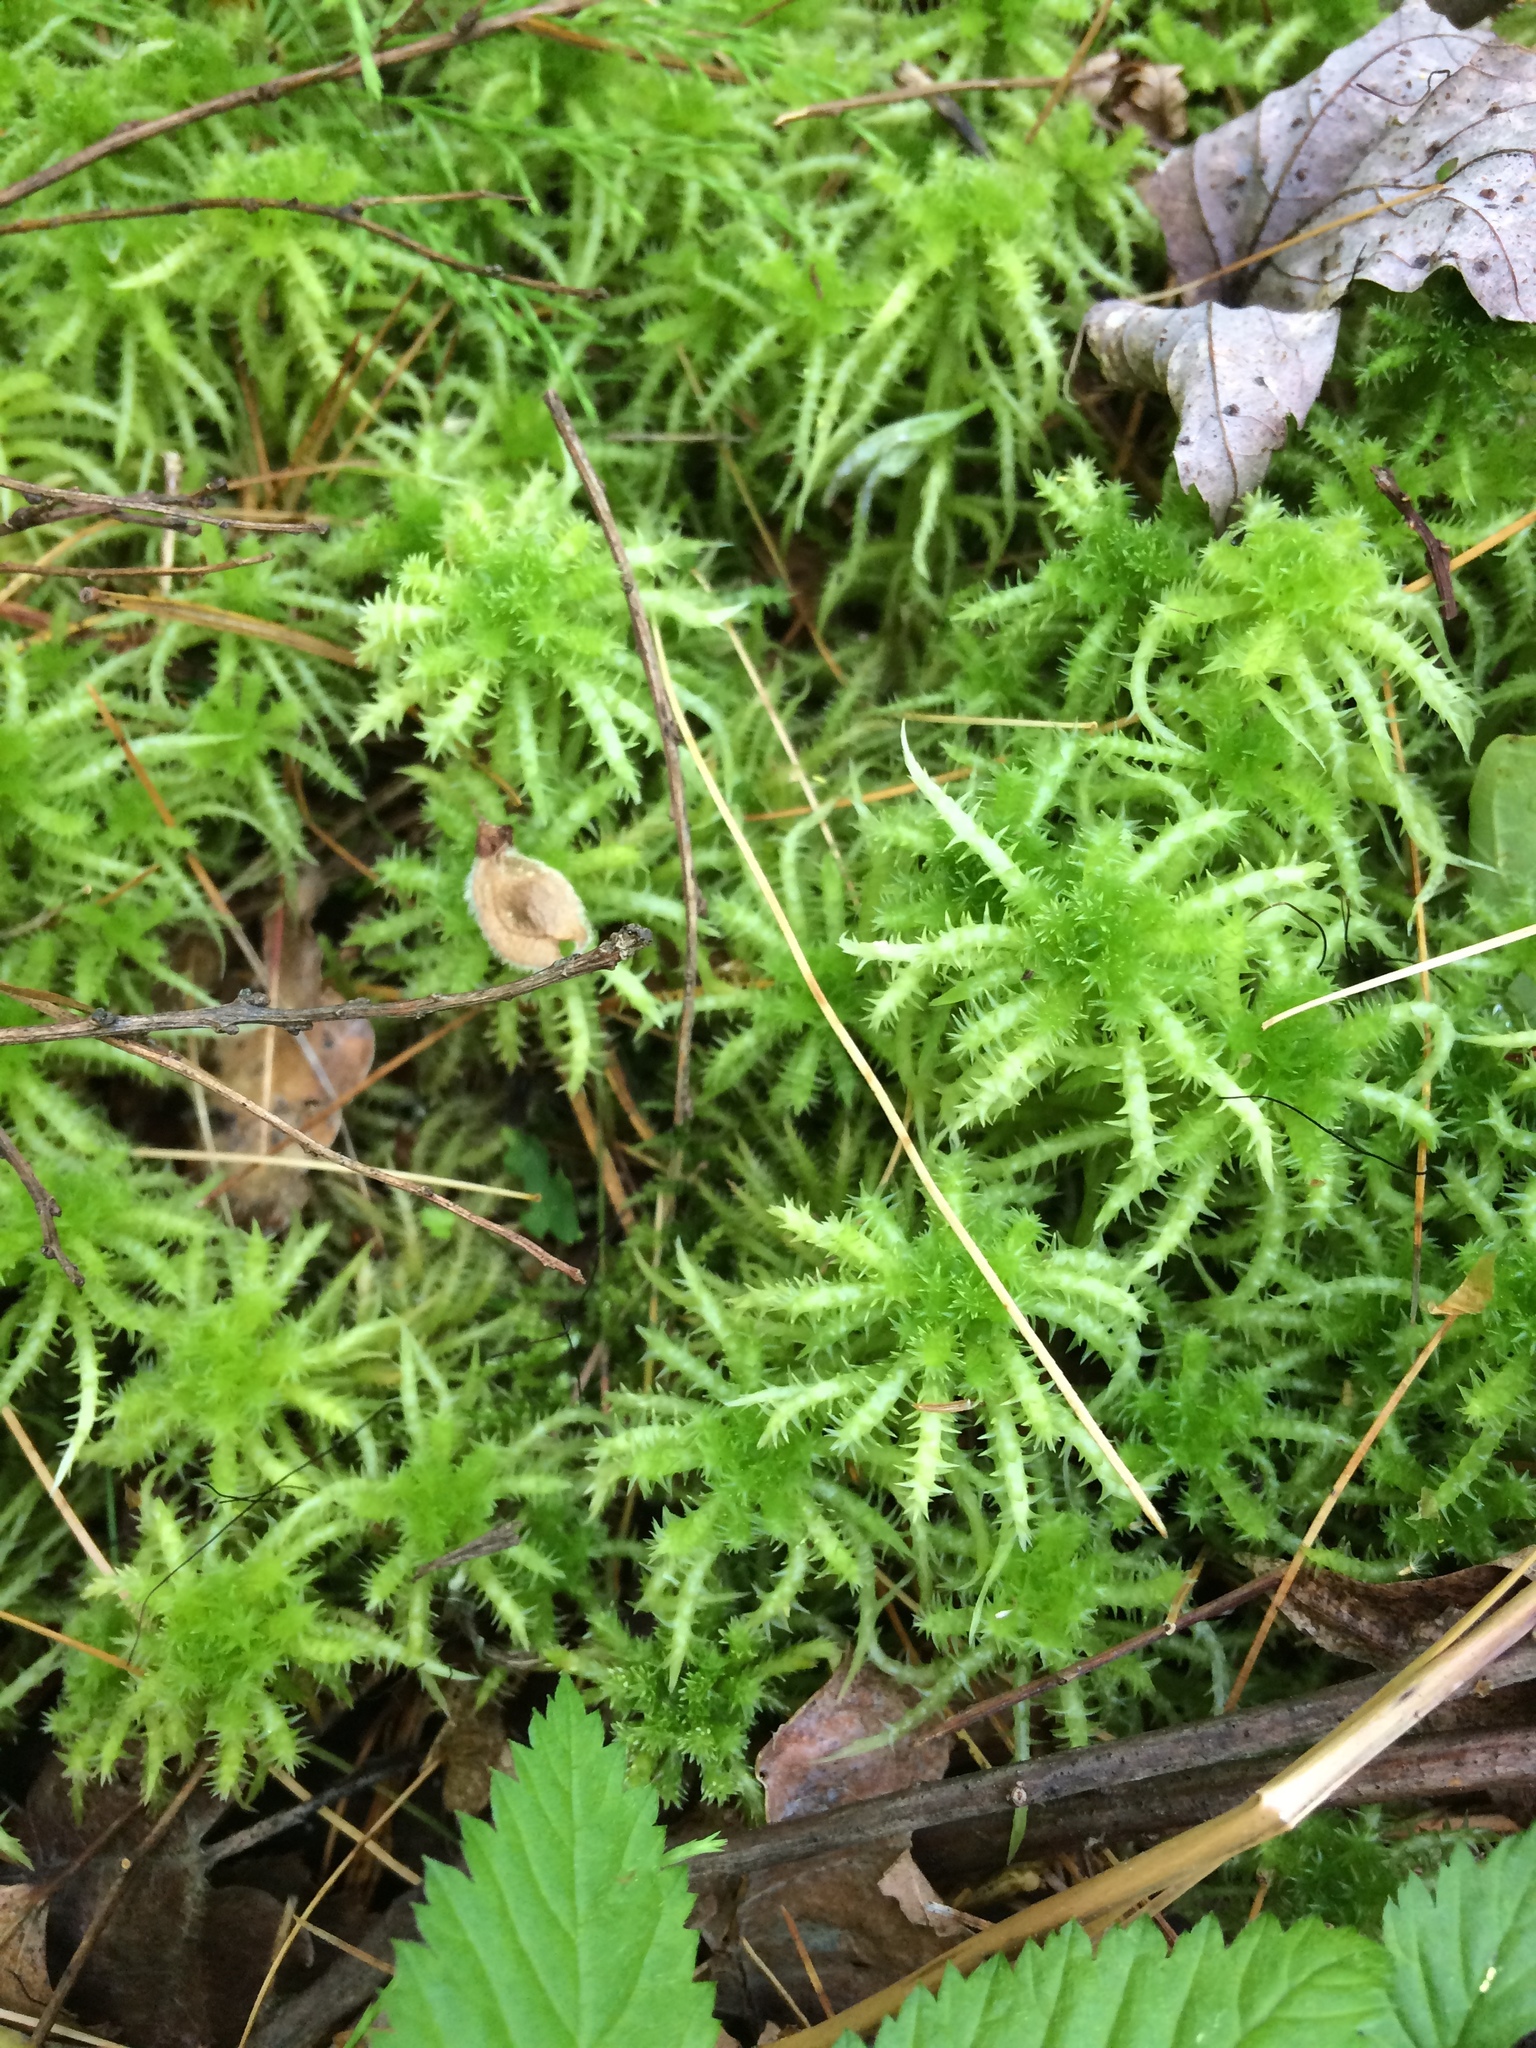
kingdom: Plantae
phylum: Bryophyta
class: Sphagnopsida
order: Sphagnales
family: Sphagnaceae
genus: Sphagnum
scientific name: Sphagnum squarrosum
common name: Shaggy peat moss
